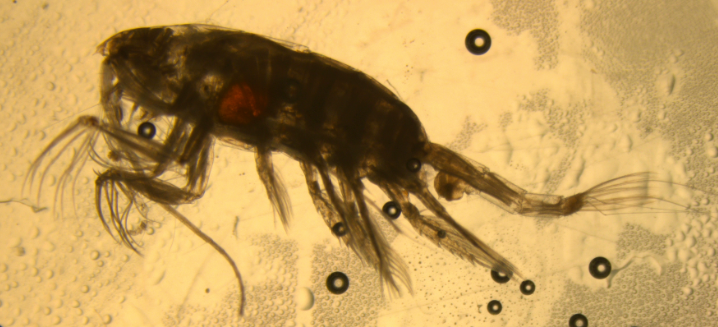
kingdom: Animalia
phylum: Arthropoda
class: Copepoda
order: Calanoida
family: Euchaetidae
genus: Paraeuchaeta
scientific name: Paraeuchaeta norvegica
